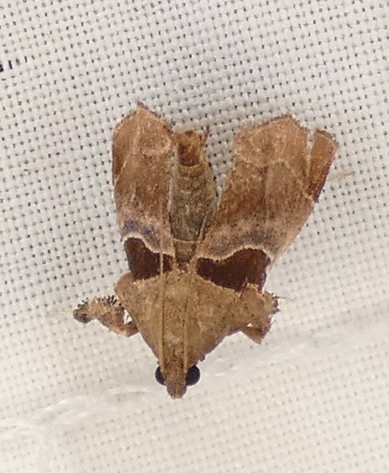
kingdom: Animalia
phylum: Arthropoda
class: Insecta
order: Lepidoptera
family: Pyralidae
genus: Tosale
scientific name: Tosale oviplagalis
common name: Dimorphic tosale moth
